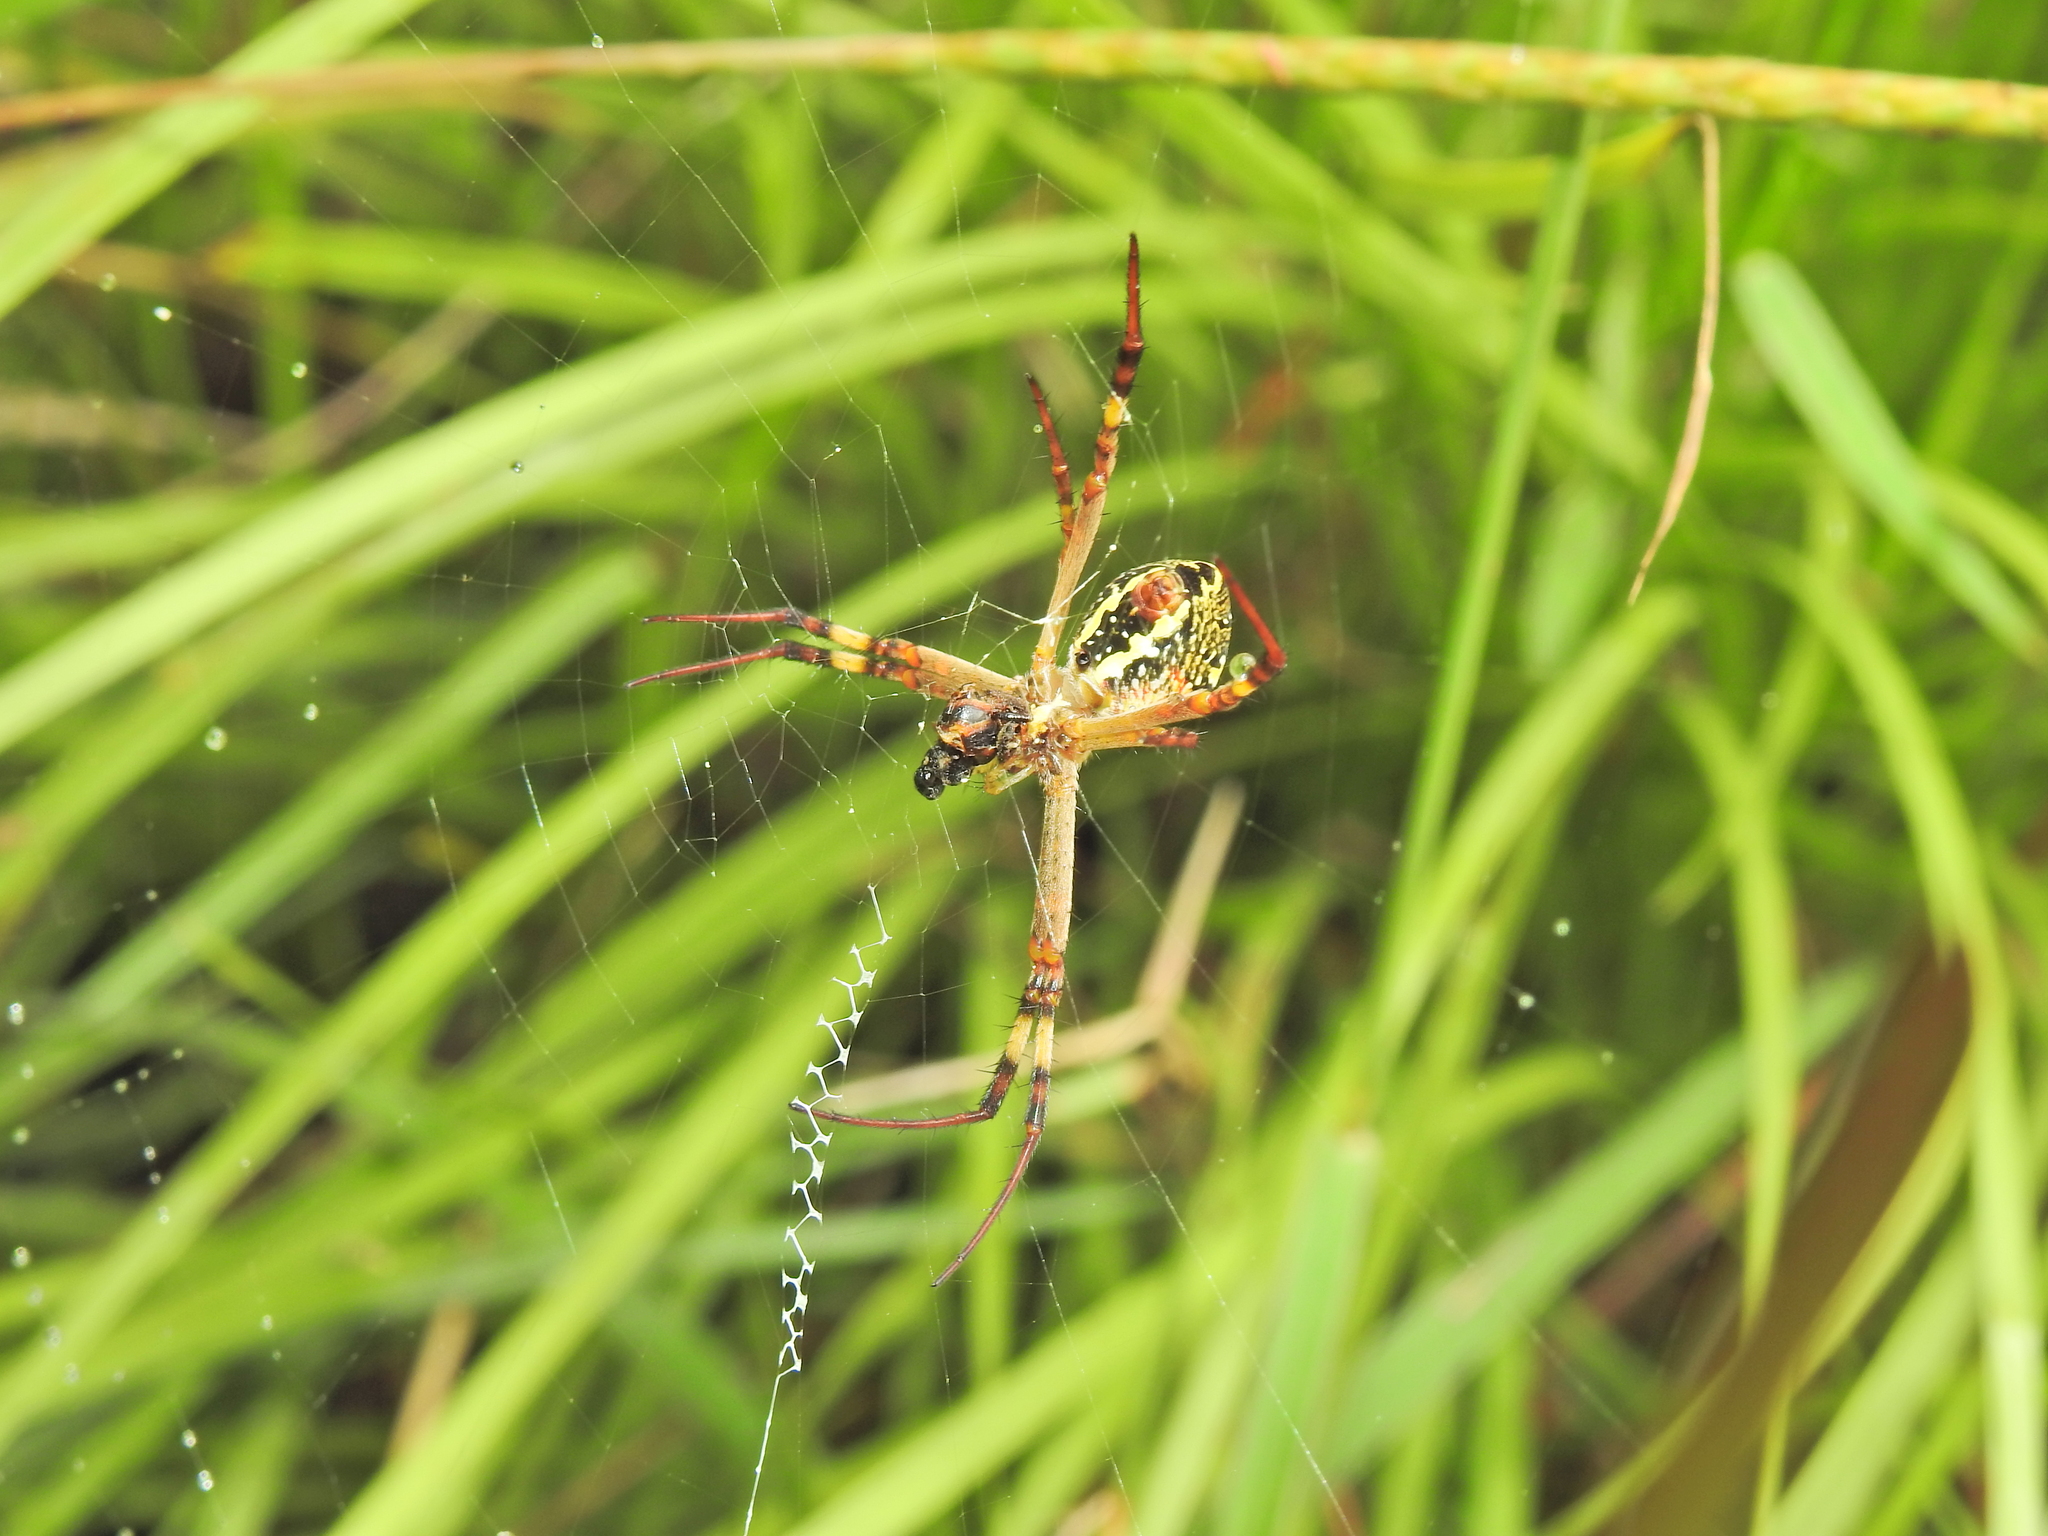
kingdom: Animalia
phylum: Arthropoda
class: Arachnida
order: Araneae
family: Araneidae
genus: Argiope
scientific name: Argiope keyserlingi
